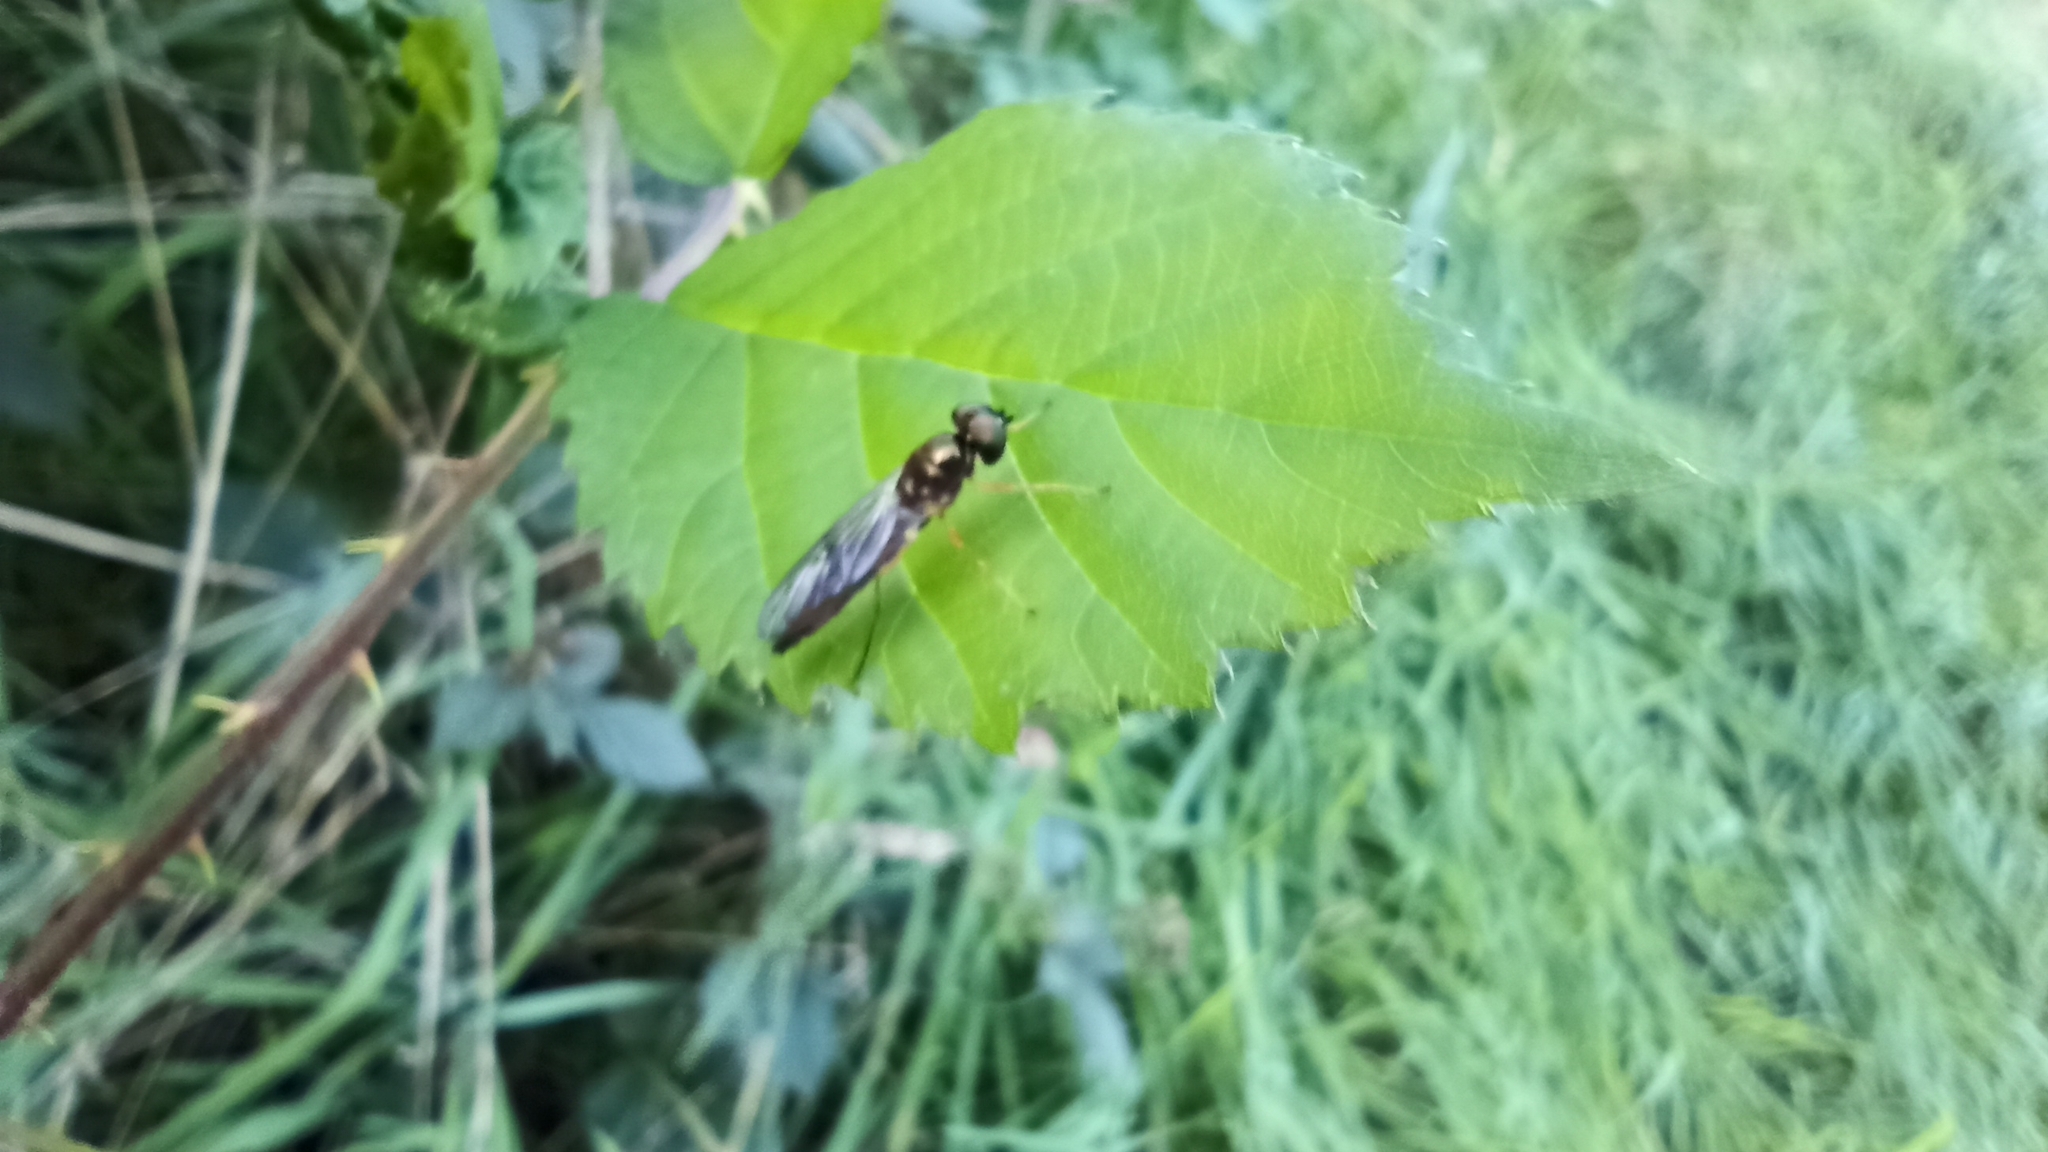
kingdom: Animalia
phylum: Arthropoda
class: Insecta
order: Diptera
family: Stratiomyidae
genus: Sargus
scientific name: Sargus bipunctatus
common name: Twin-spot centurion
